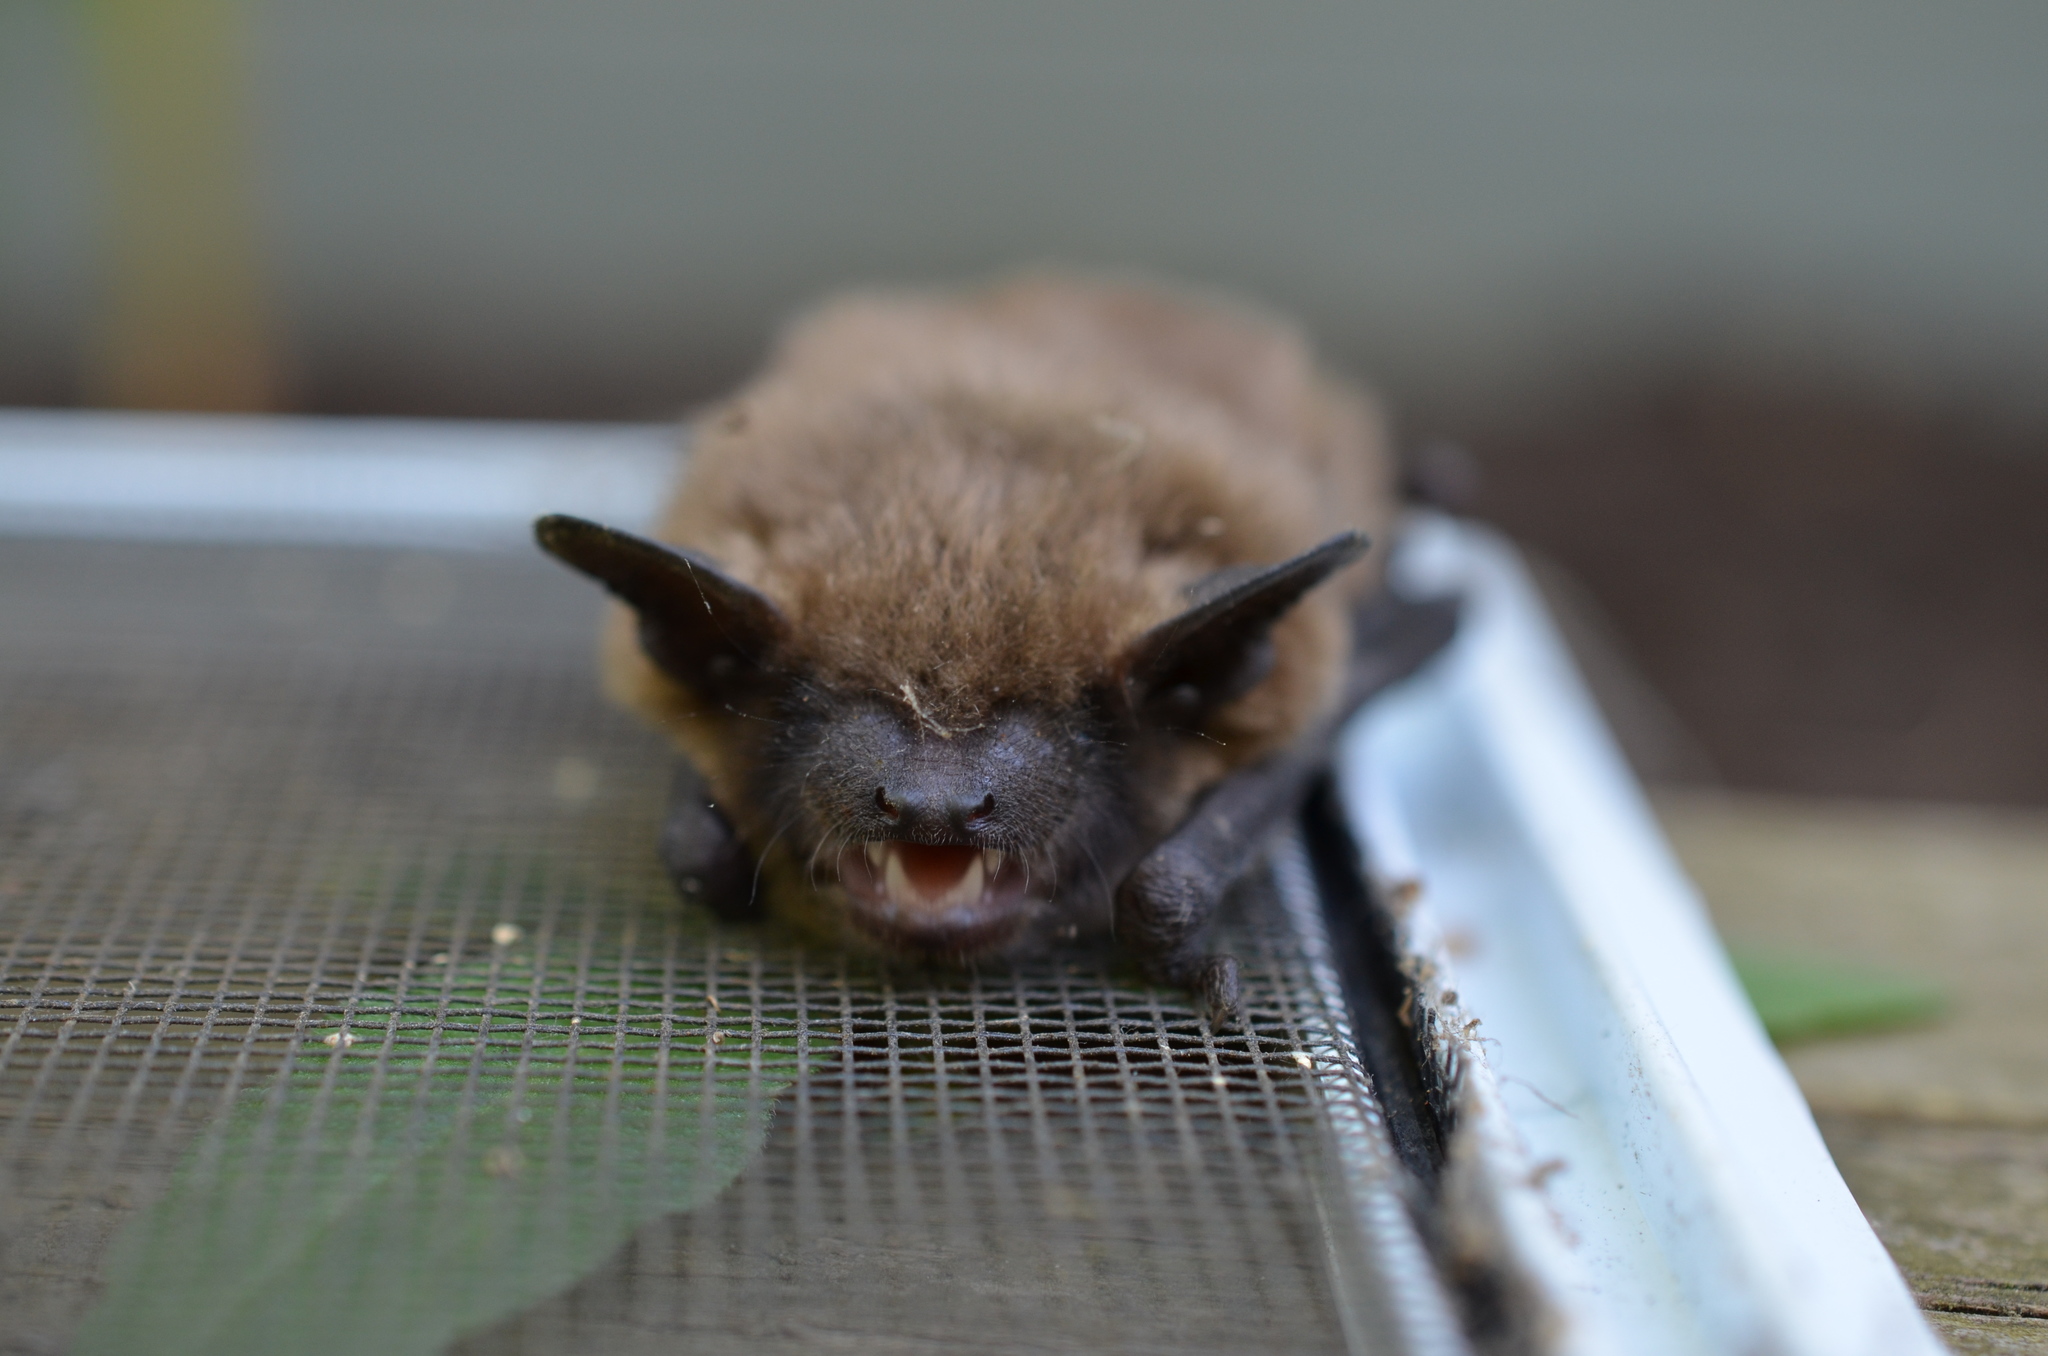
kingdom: Animalia
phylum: Chordata
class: Mammalia
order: Chiroptera
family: Vespertilionidae
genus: Eptesicus
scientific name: Eptesicus fuscus
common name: Big brown bat
